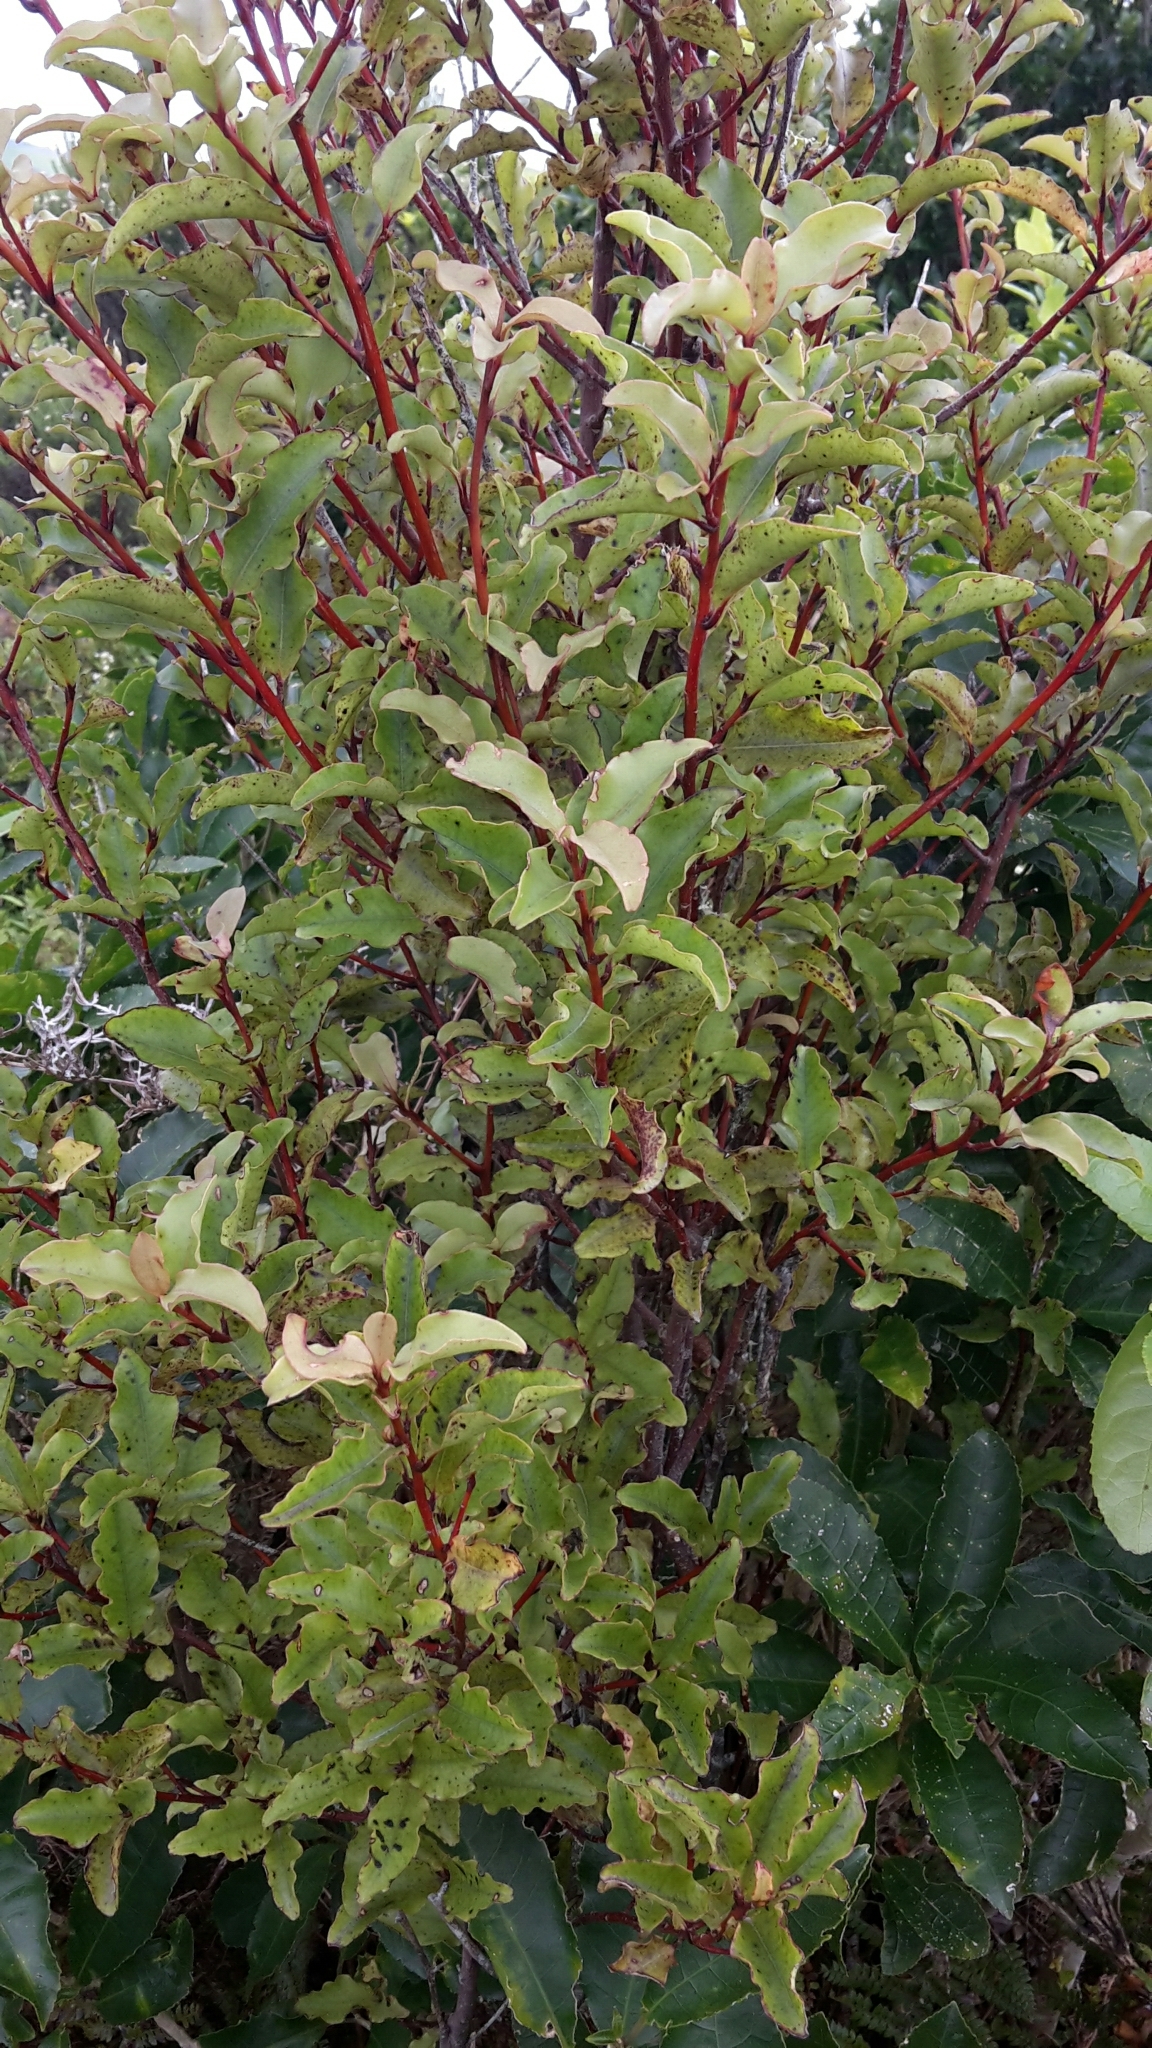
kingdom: Plantae
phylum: Tracheophyta
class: Magnoliopsida
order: Ericales
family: Primulaceae
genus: Myrsine
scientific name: Myrsine australis
